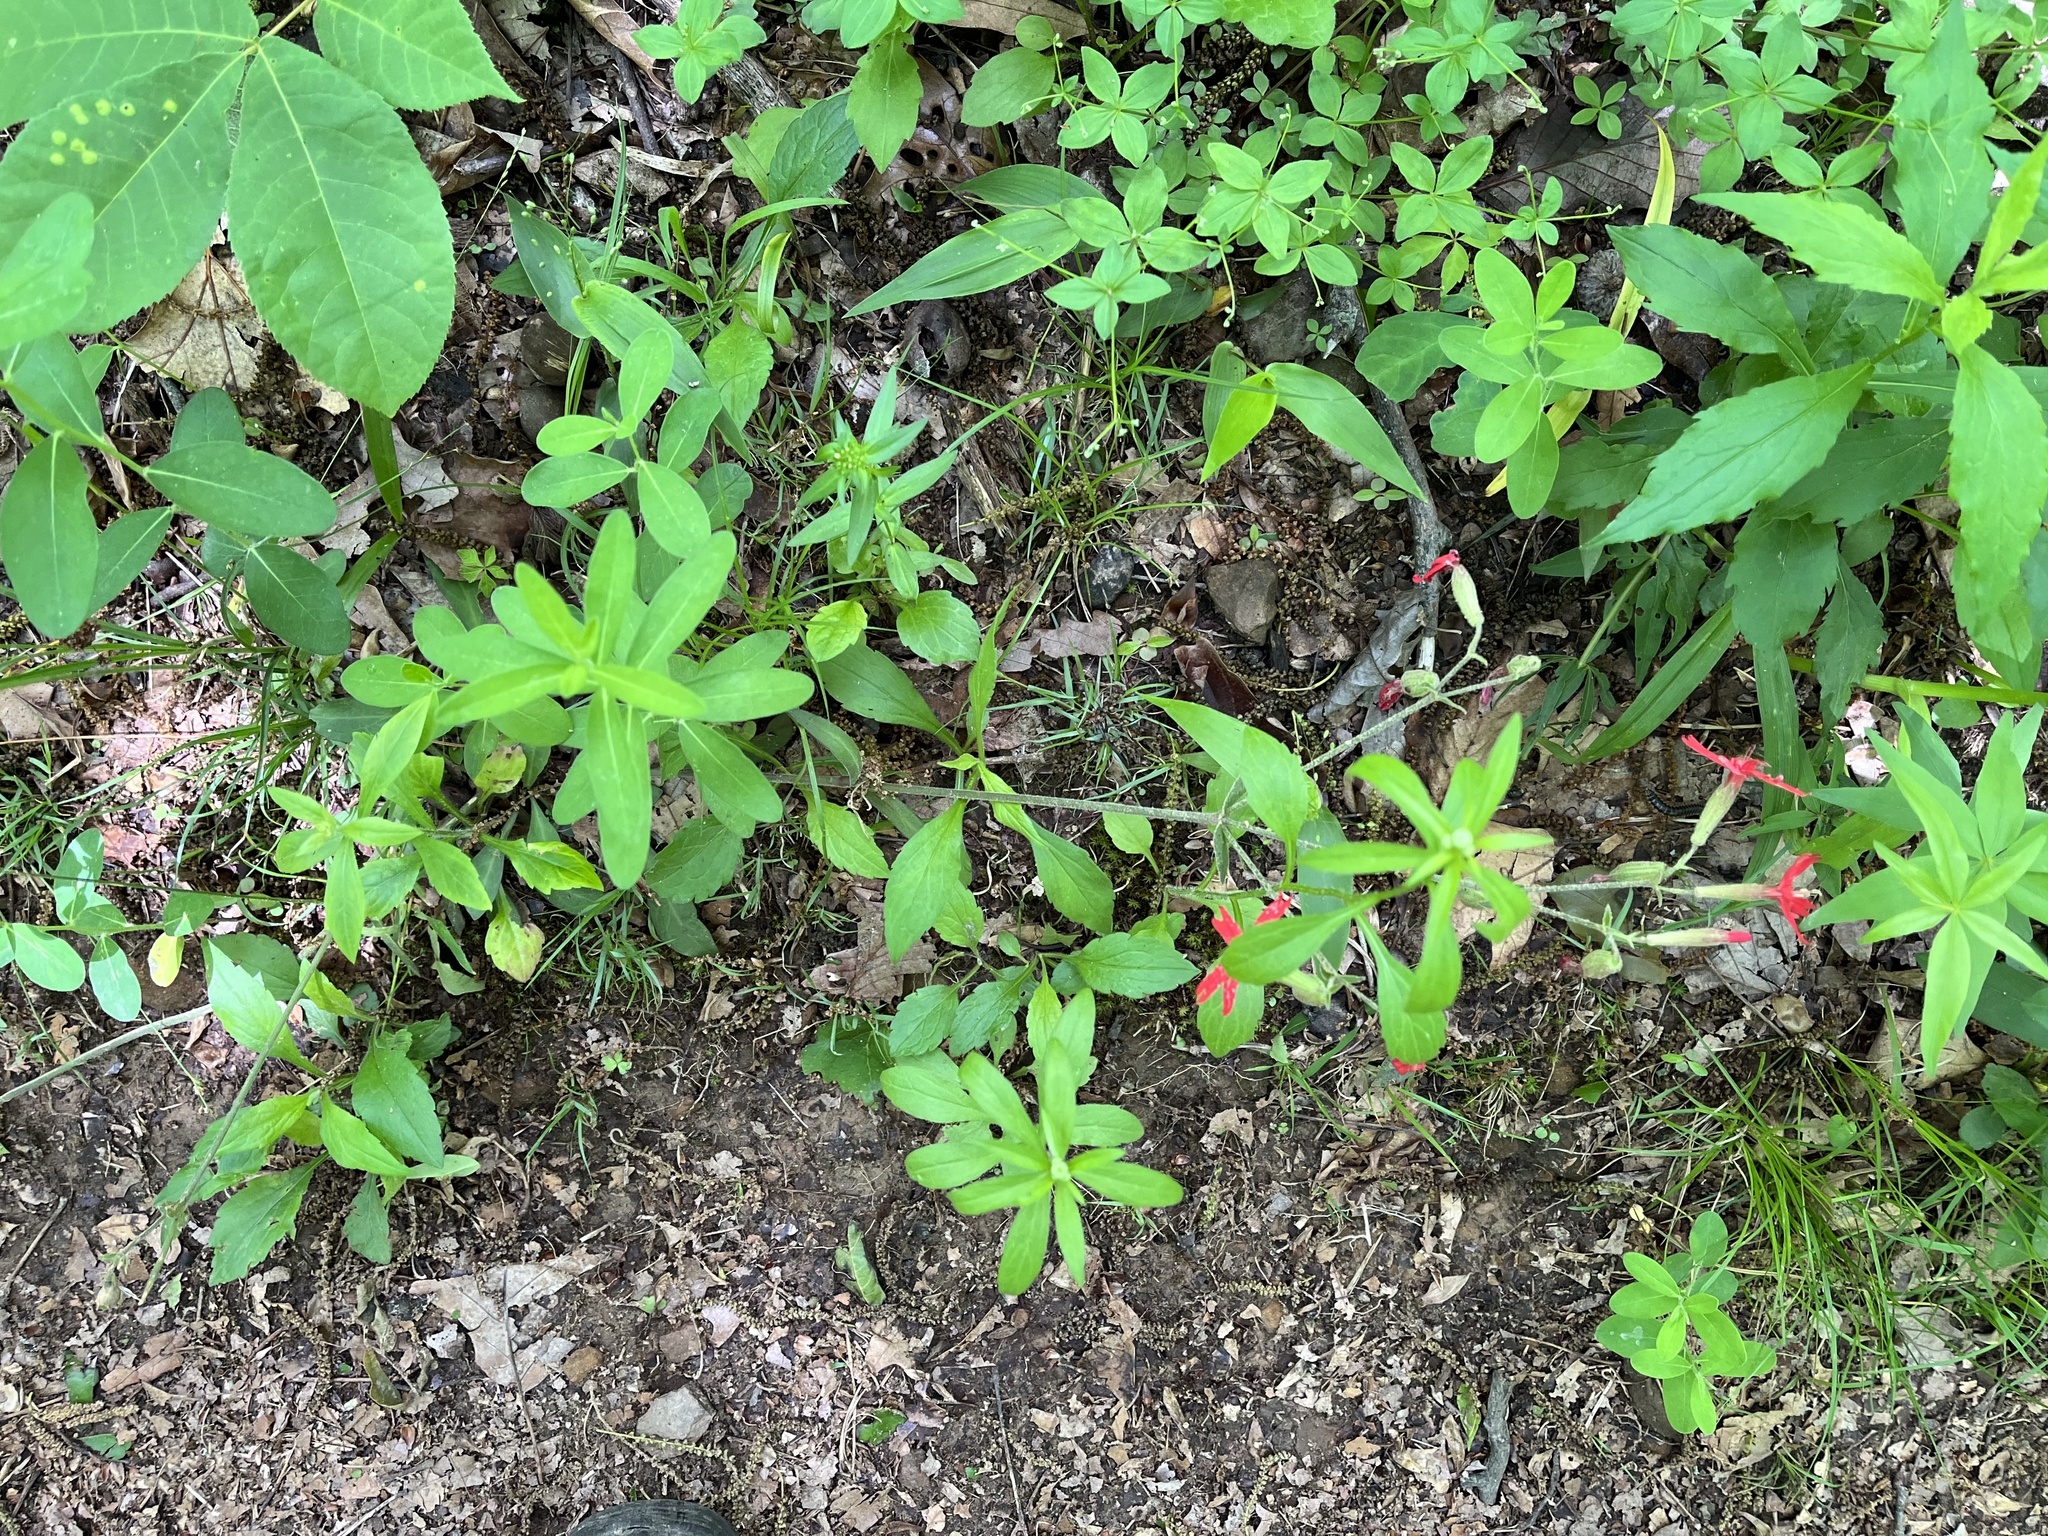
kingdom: Plantae
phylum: Tracheophyta
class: Magnoliopsida
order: Caryophyllales
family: Caryophyllaceae
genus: Silene
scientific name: Silene virginica
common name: Fire-pink
